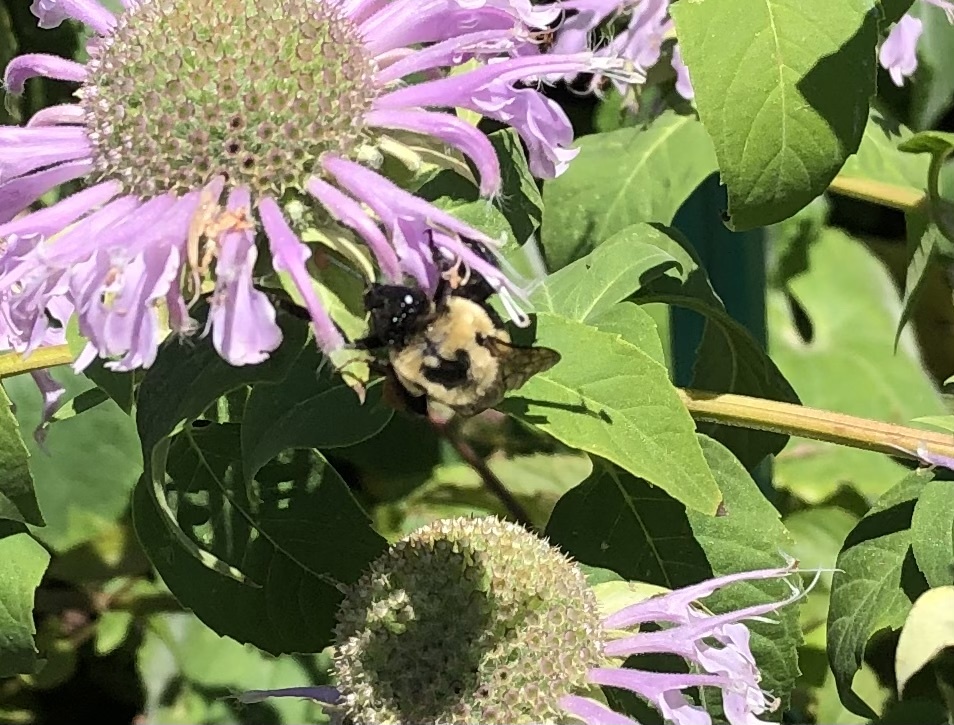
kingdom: Animalia
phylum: Arthropoda
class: Insecta
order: Hymenoptera
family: Apidae
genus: Bombus
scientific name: Bombus griseocollis
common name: Brown-belted bumble bee
